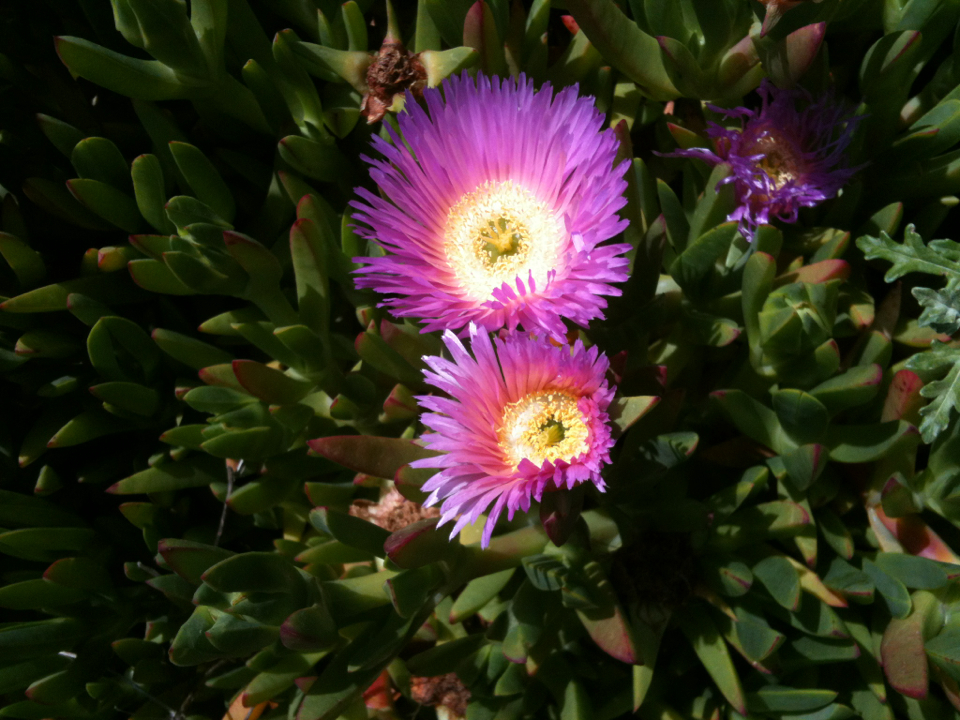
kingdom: Plantae
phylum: Tracheophyta
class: Magnoliopsida
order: Caryophyllales
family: Aizoaceae
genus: Carpobrotus
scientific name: Carpobrotus chilensis
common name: Sea fig
